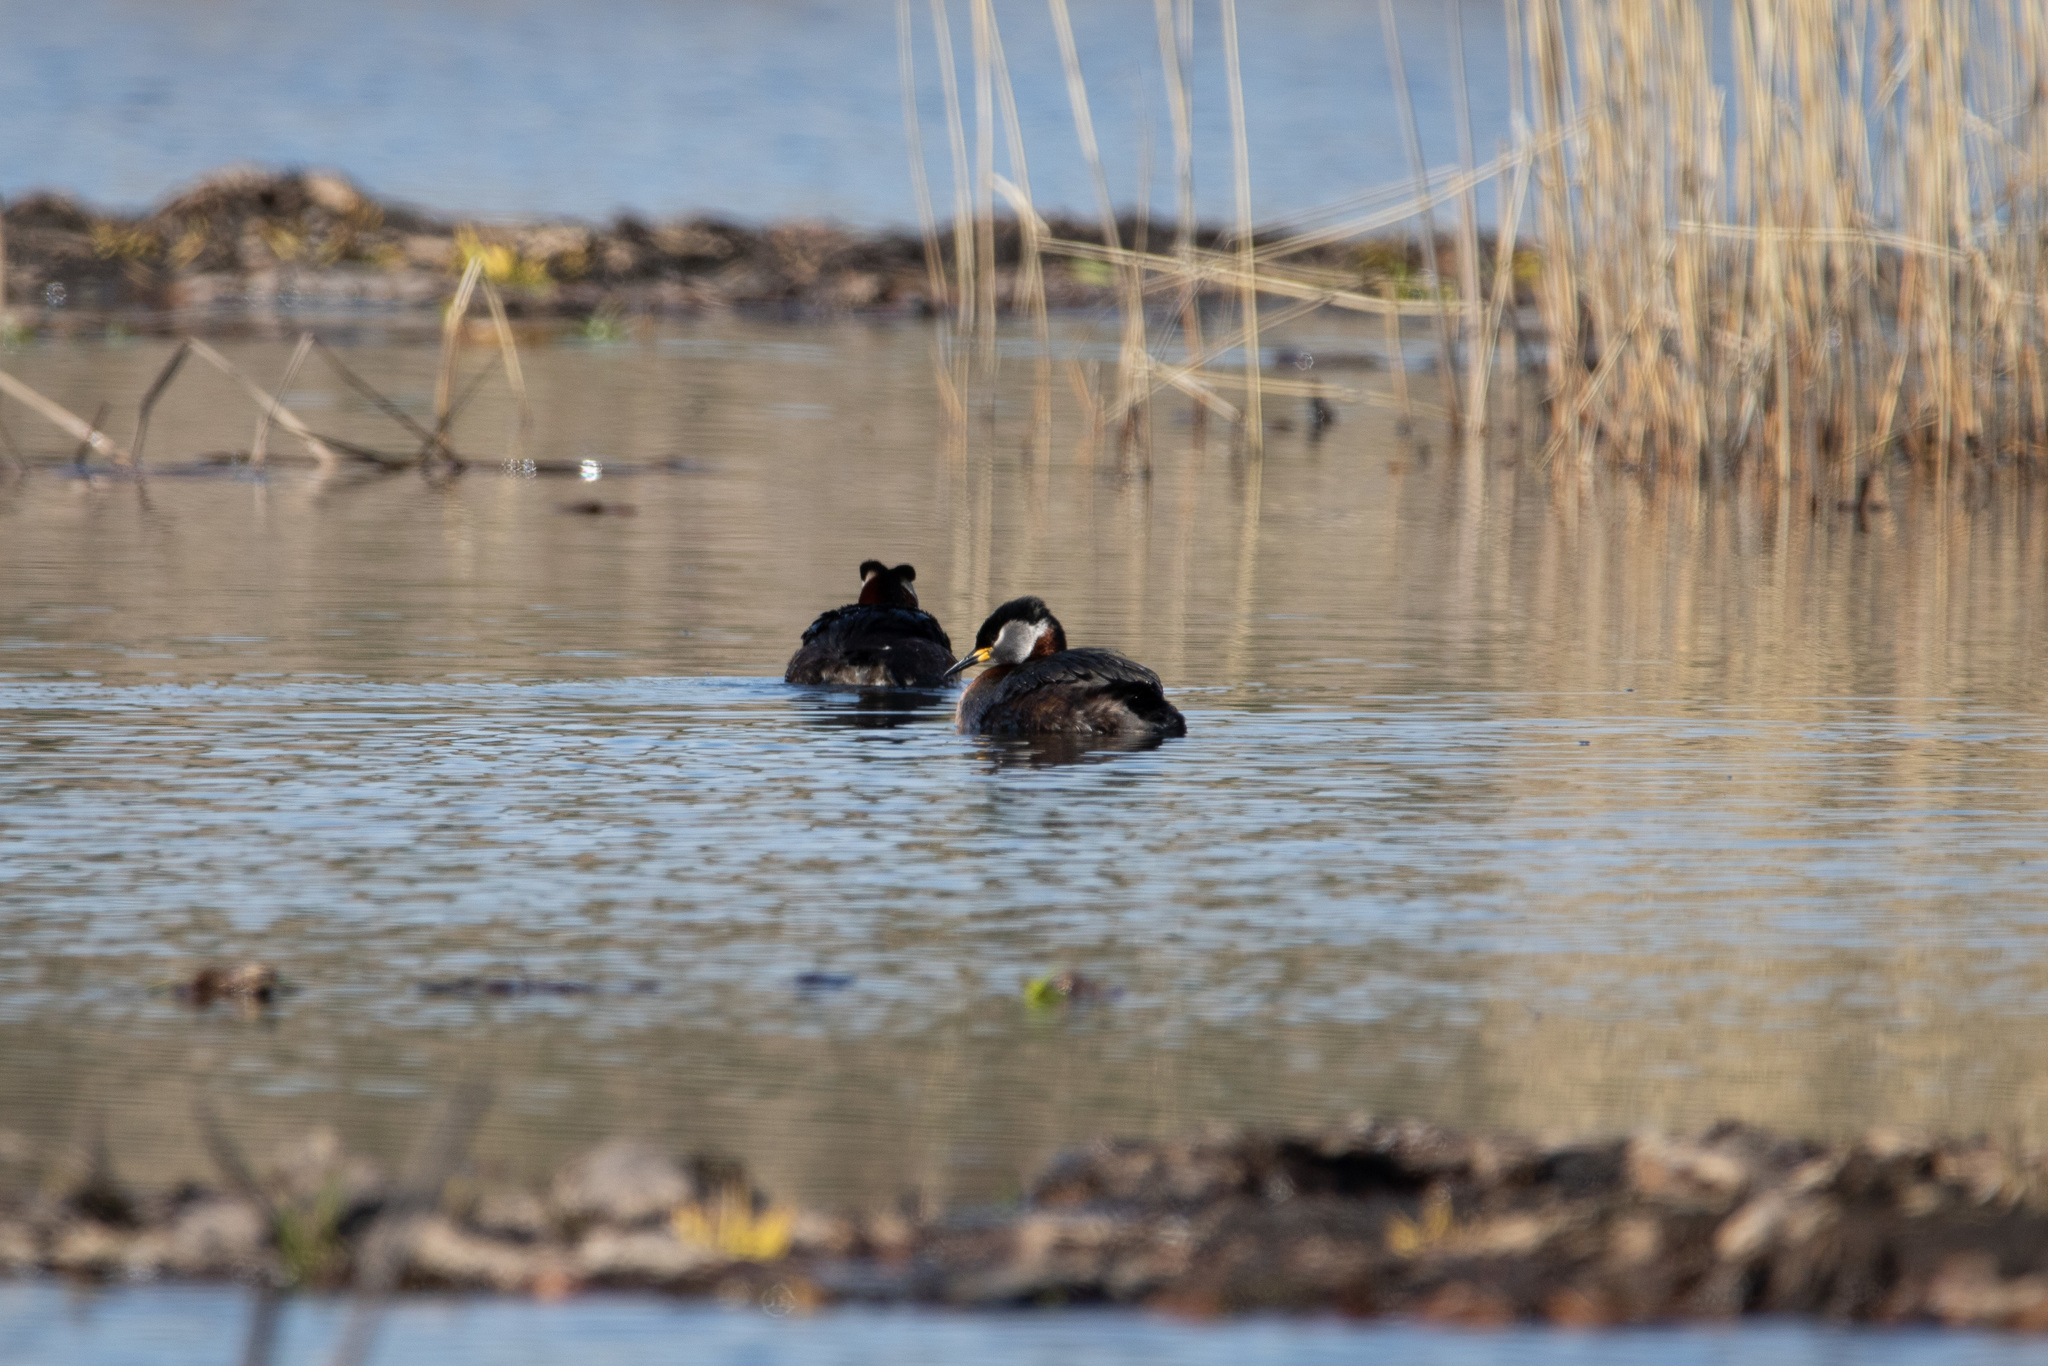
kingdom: Animalia
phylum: Chordata
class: Aves
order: Podicipediformes
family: Podicipedidae
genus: Podiceps
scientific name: Podiceps grisegena
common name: Red-necked grebe
